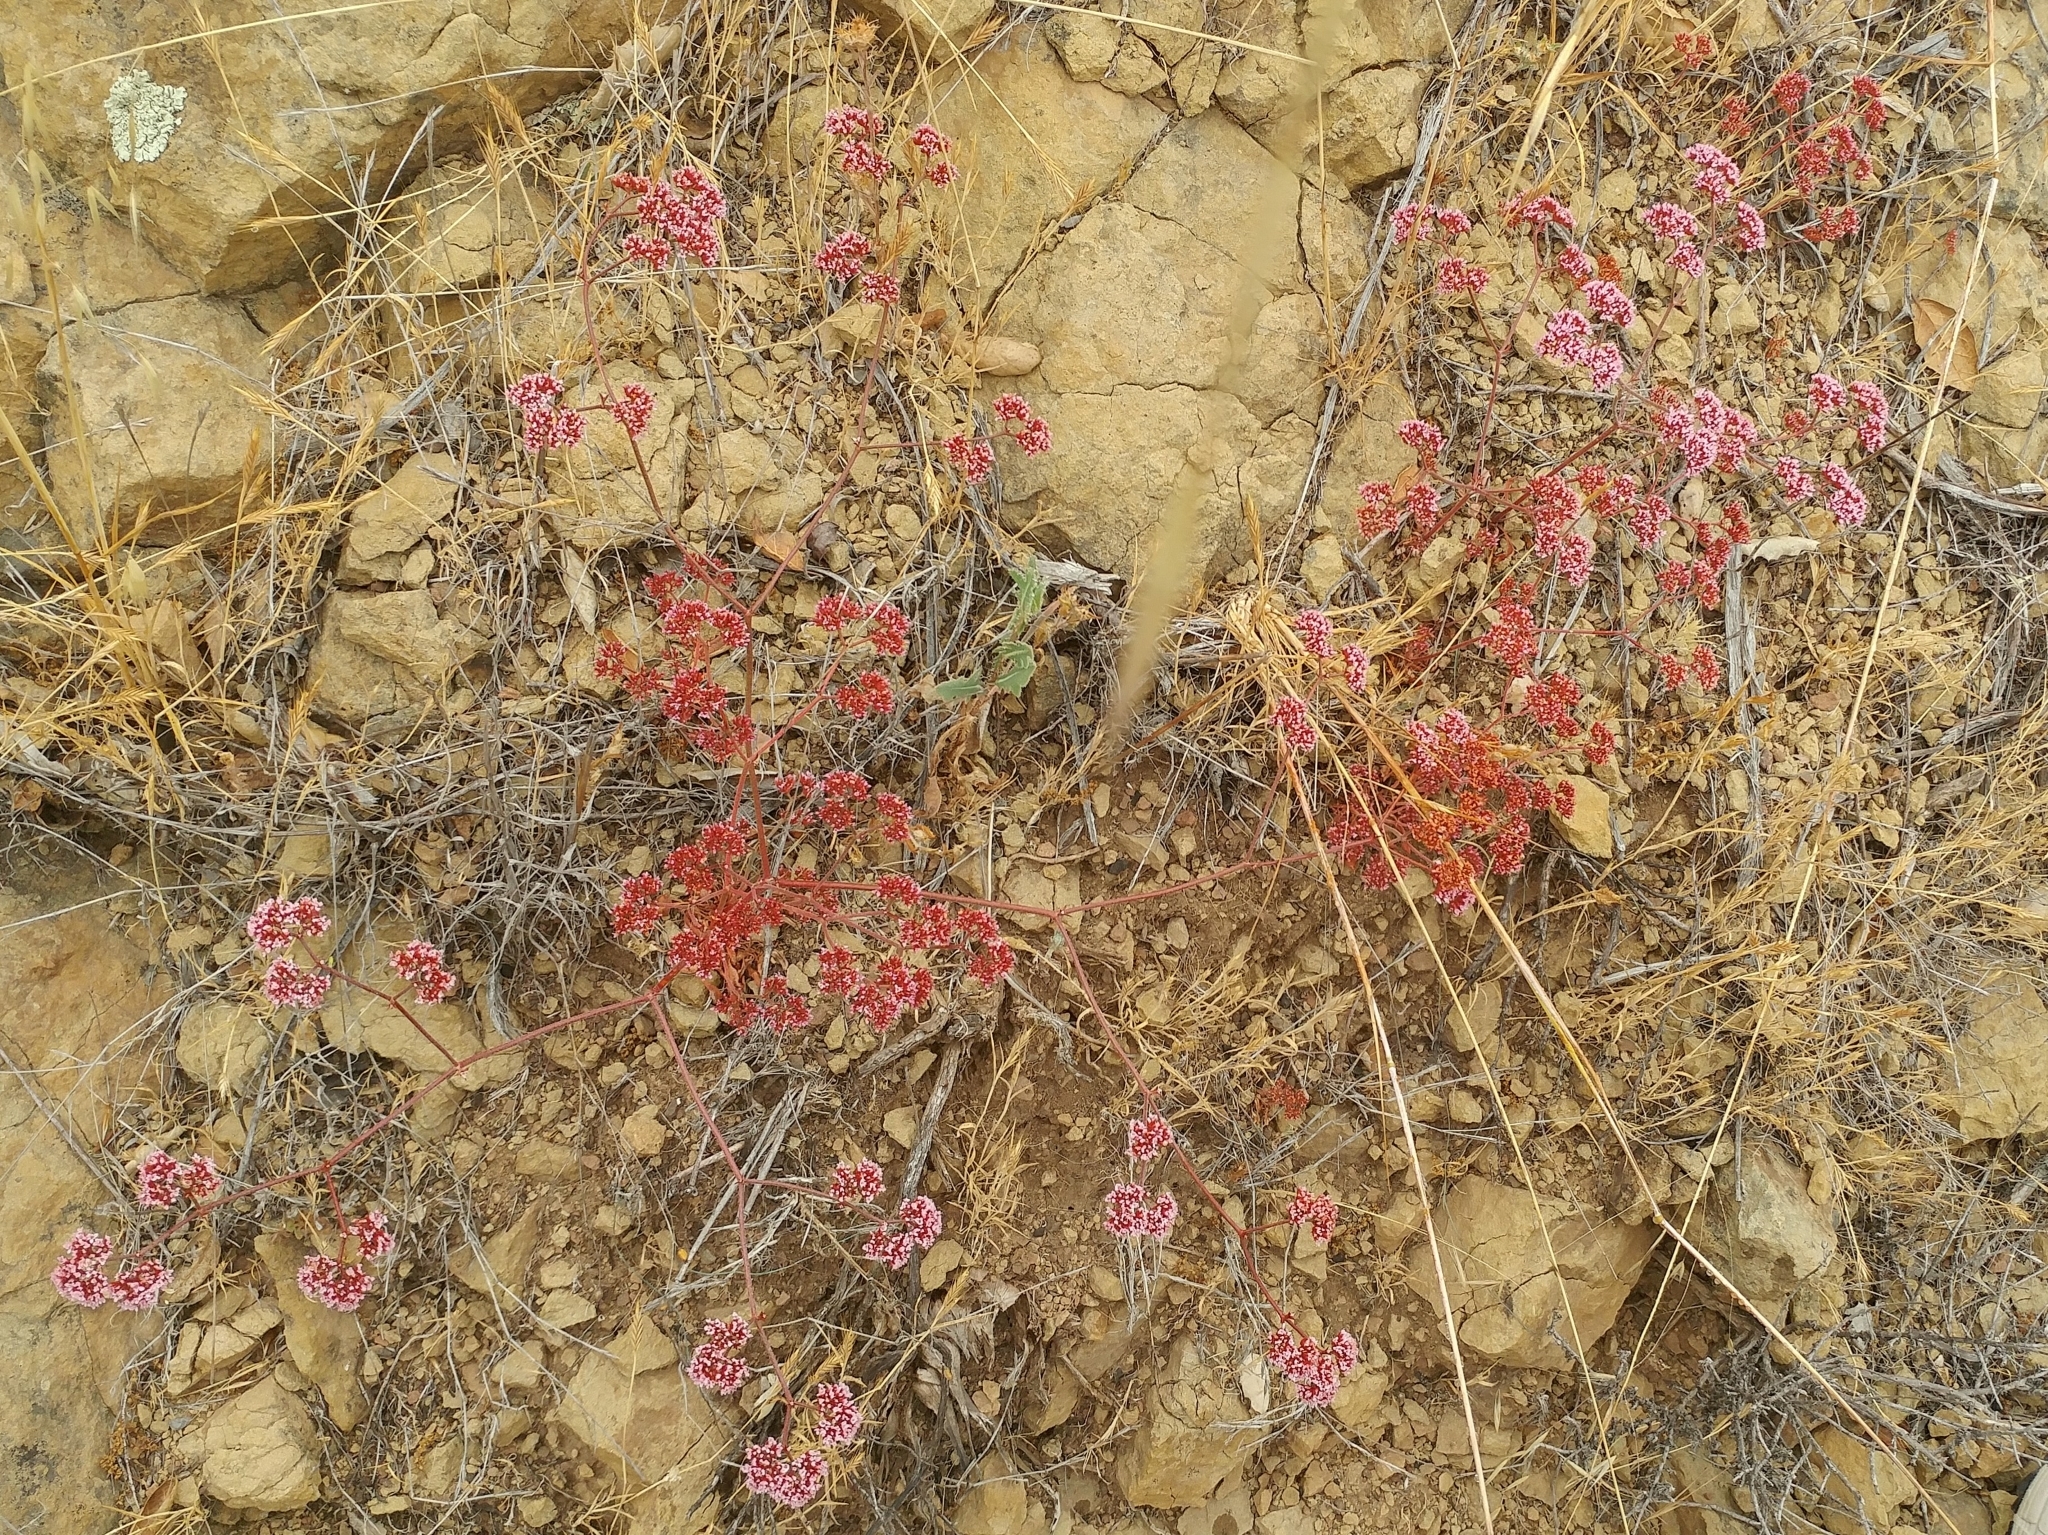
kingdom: Plantae
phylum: Tracheophyta
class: Magnoliopsida
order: Caryophyllales
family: Polygonaceae
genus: Chorizanthe
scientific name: Chorizanthe staticoides
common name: Turkish rugging
